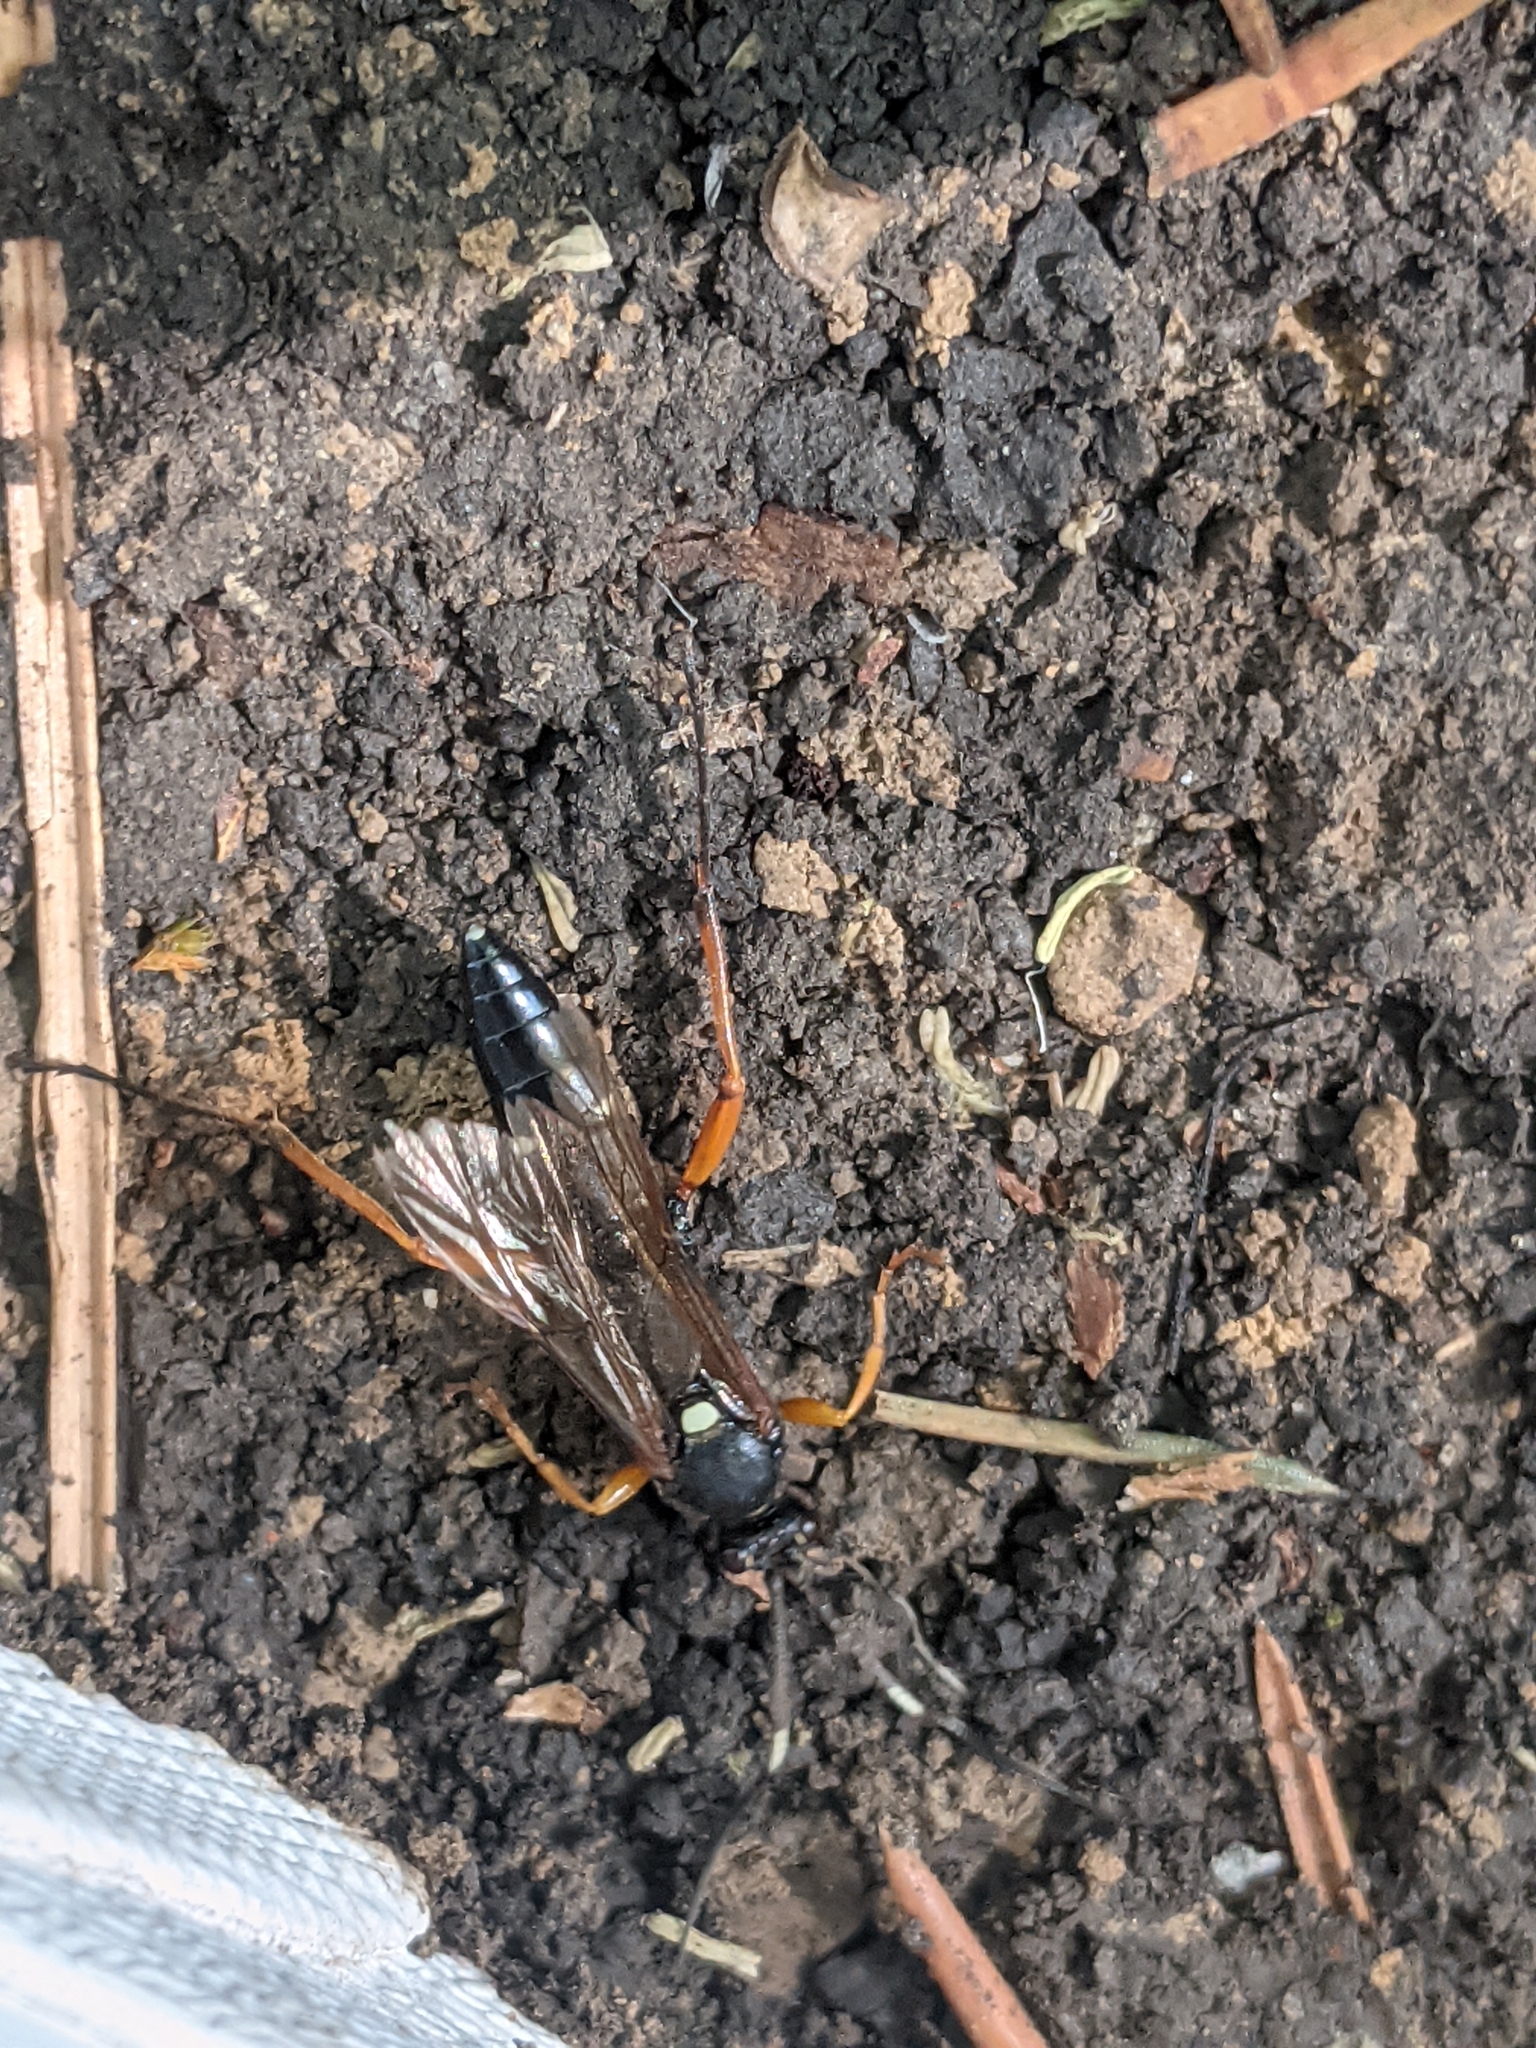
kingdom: Animalia
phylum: Arthropoda
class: Insecta
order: Hymenoptera
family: Ichneumonidae
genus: Diphyus
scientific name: Diphyus quadripunctorius
